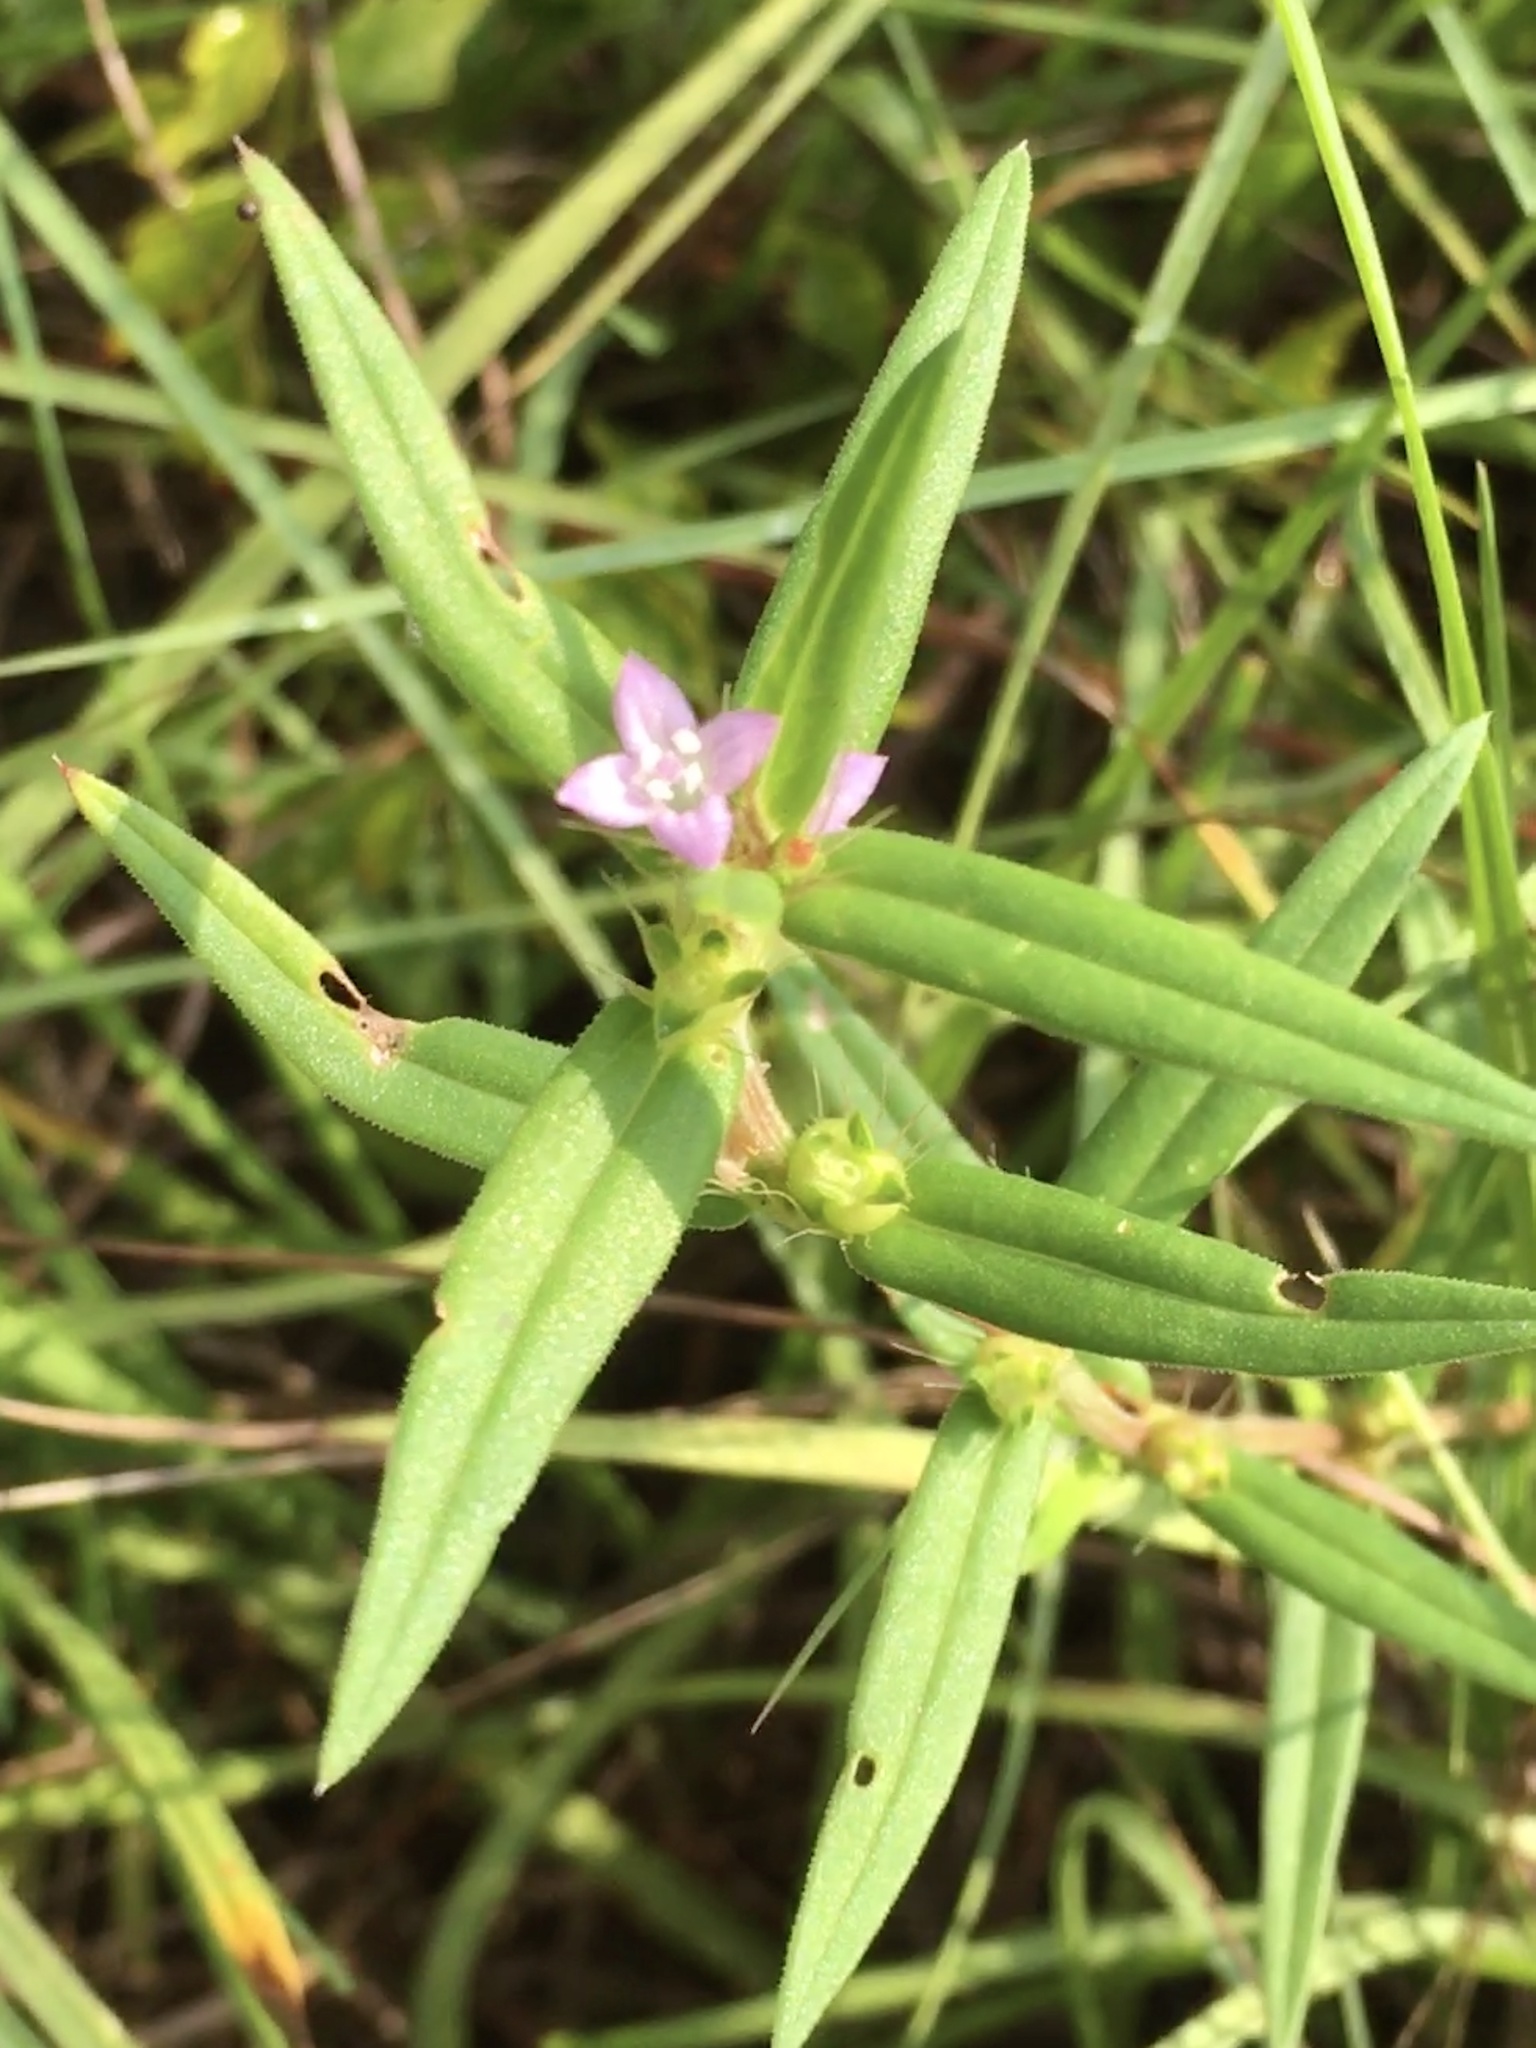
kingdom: Plantae
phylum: Tracheophyta
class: Magnoliopsida
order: Gentianales
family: Rubiaceae
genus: Hexasepalum
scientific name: Hexasepalum teres
